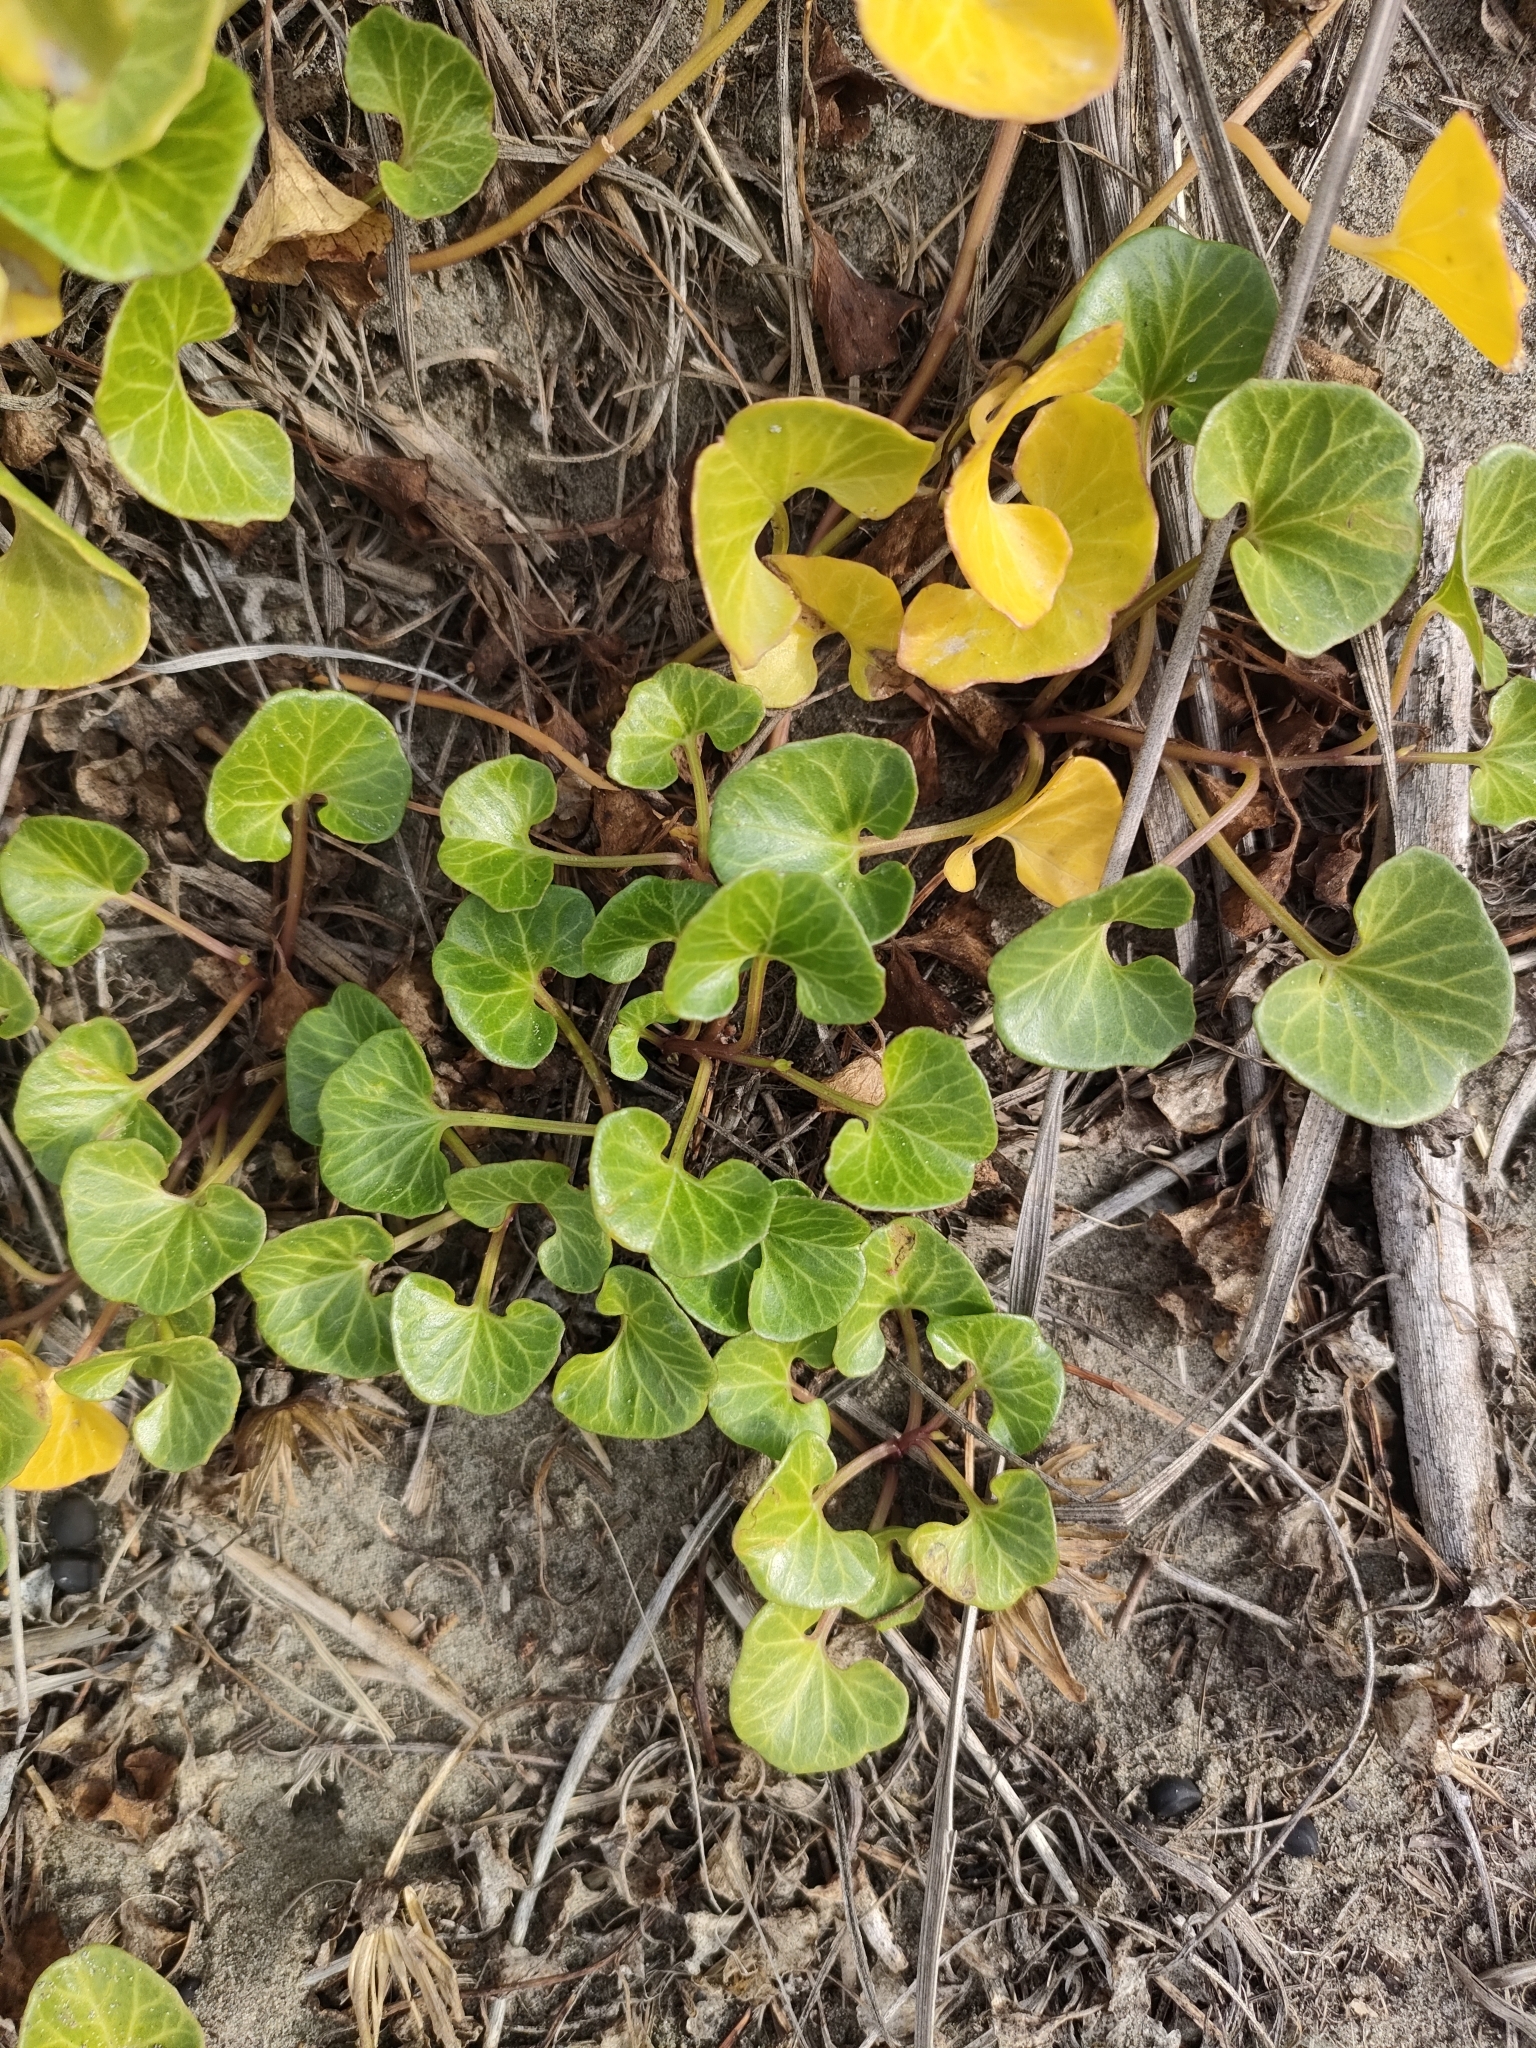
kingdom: Plantae
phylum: Tracheophyta
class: Magnoliopsida
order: Solanales
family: Convolvulaceae
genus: Calystegia
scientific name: Calystegia soldanella
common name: Sea bindweed
